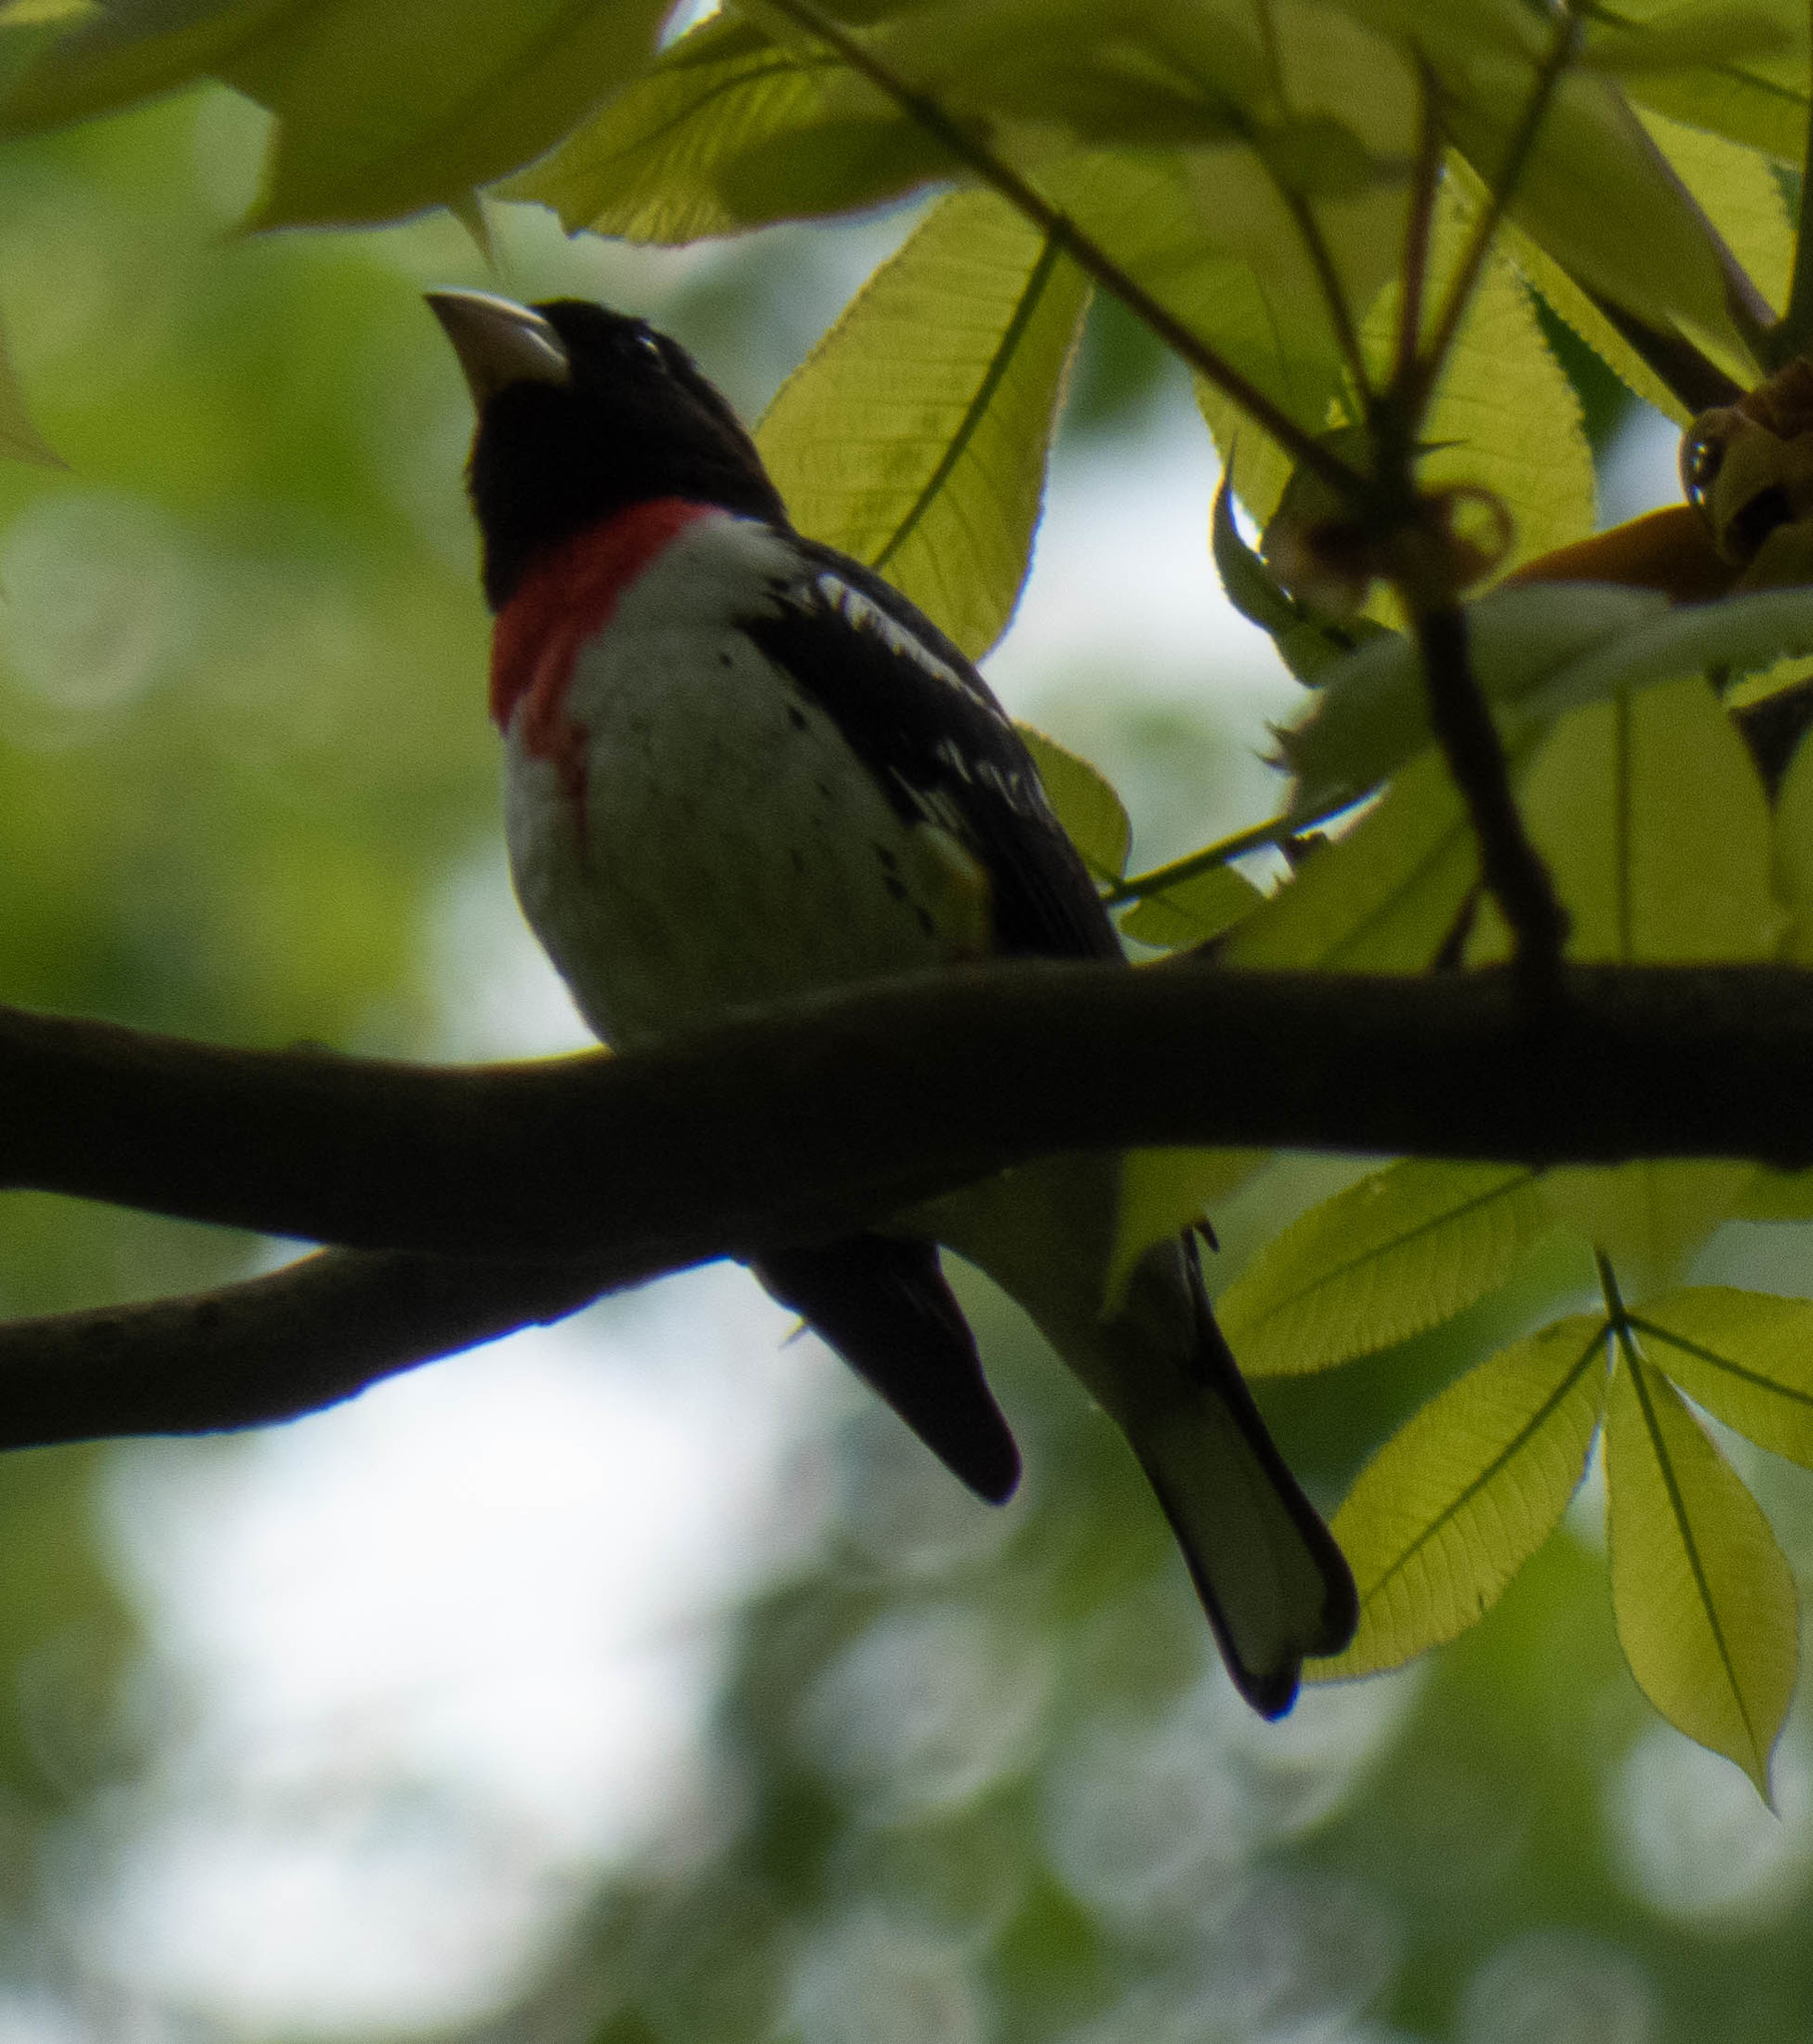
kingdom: Animalia
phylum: Chordata
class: Aves
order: Passeriformes
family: Cardinalidae
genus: Pheucticus
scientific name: Pheucticus ludovicianus
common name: Rose-breasted grosbeak
